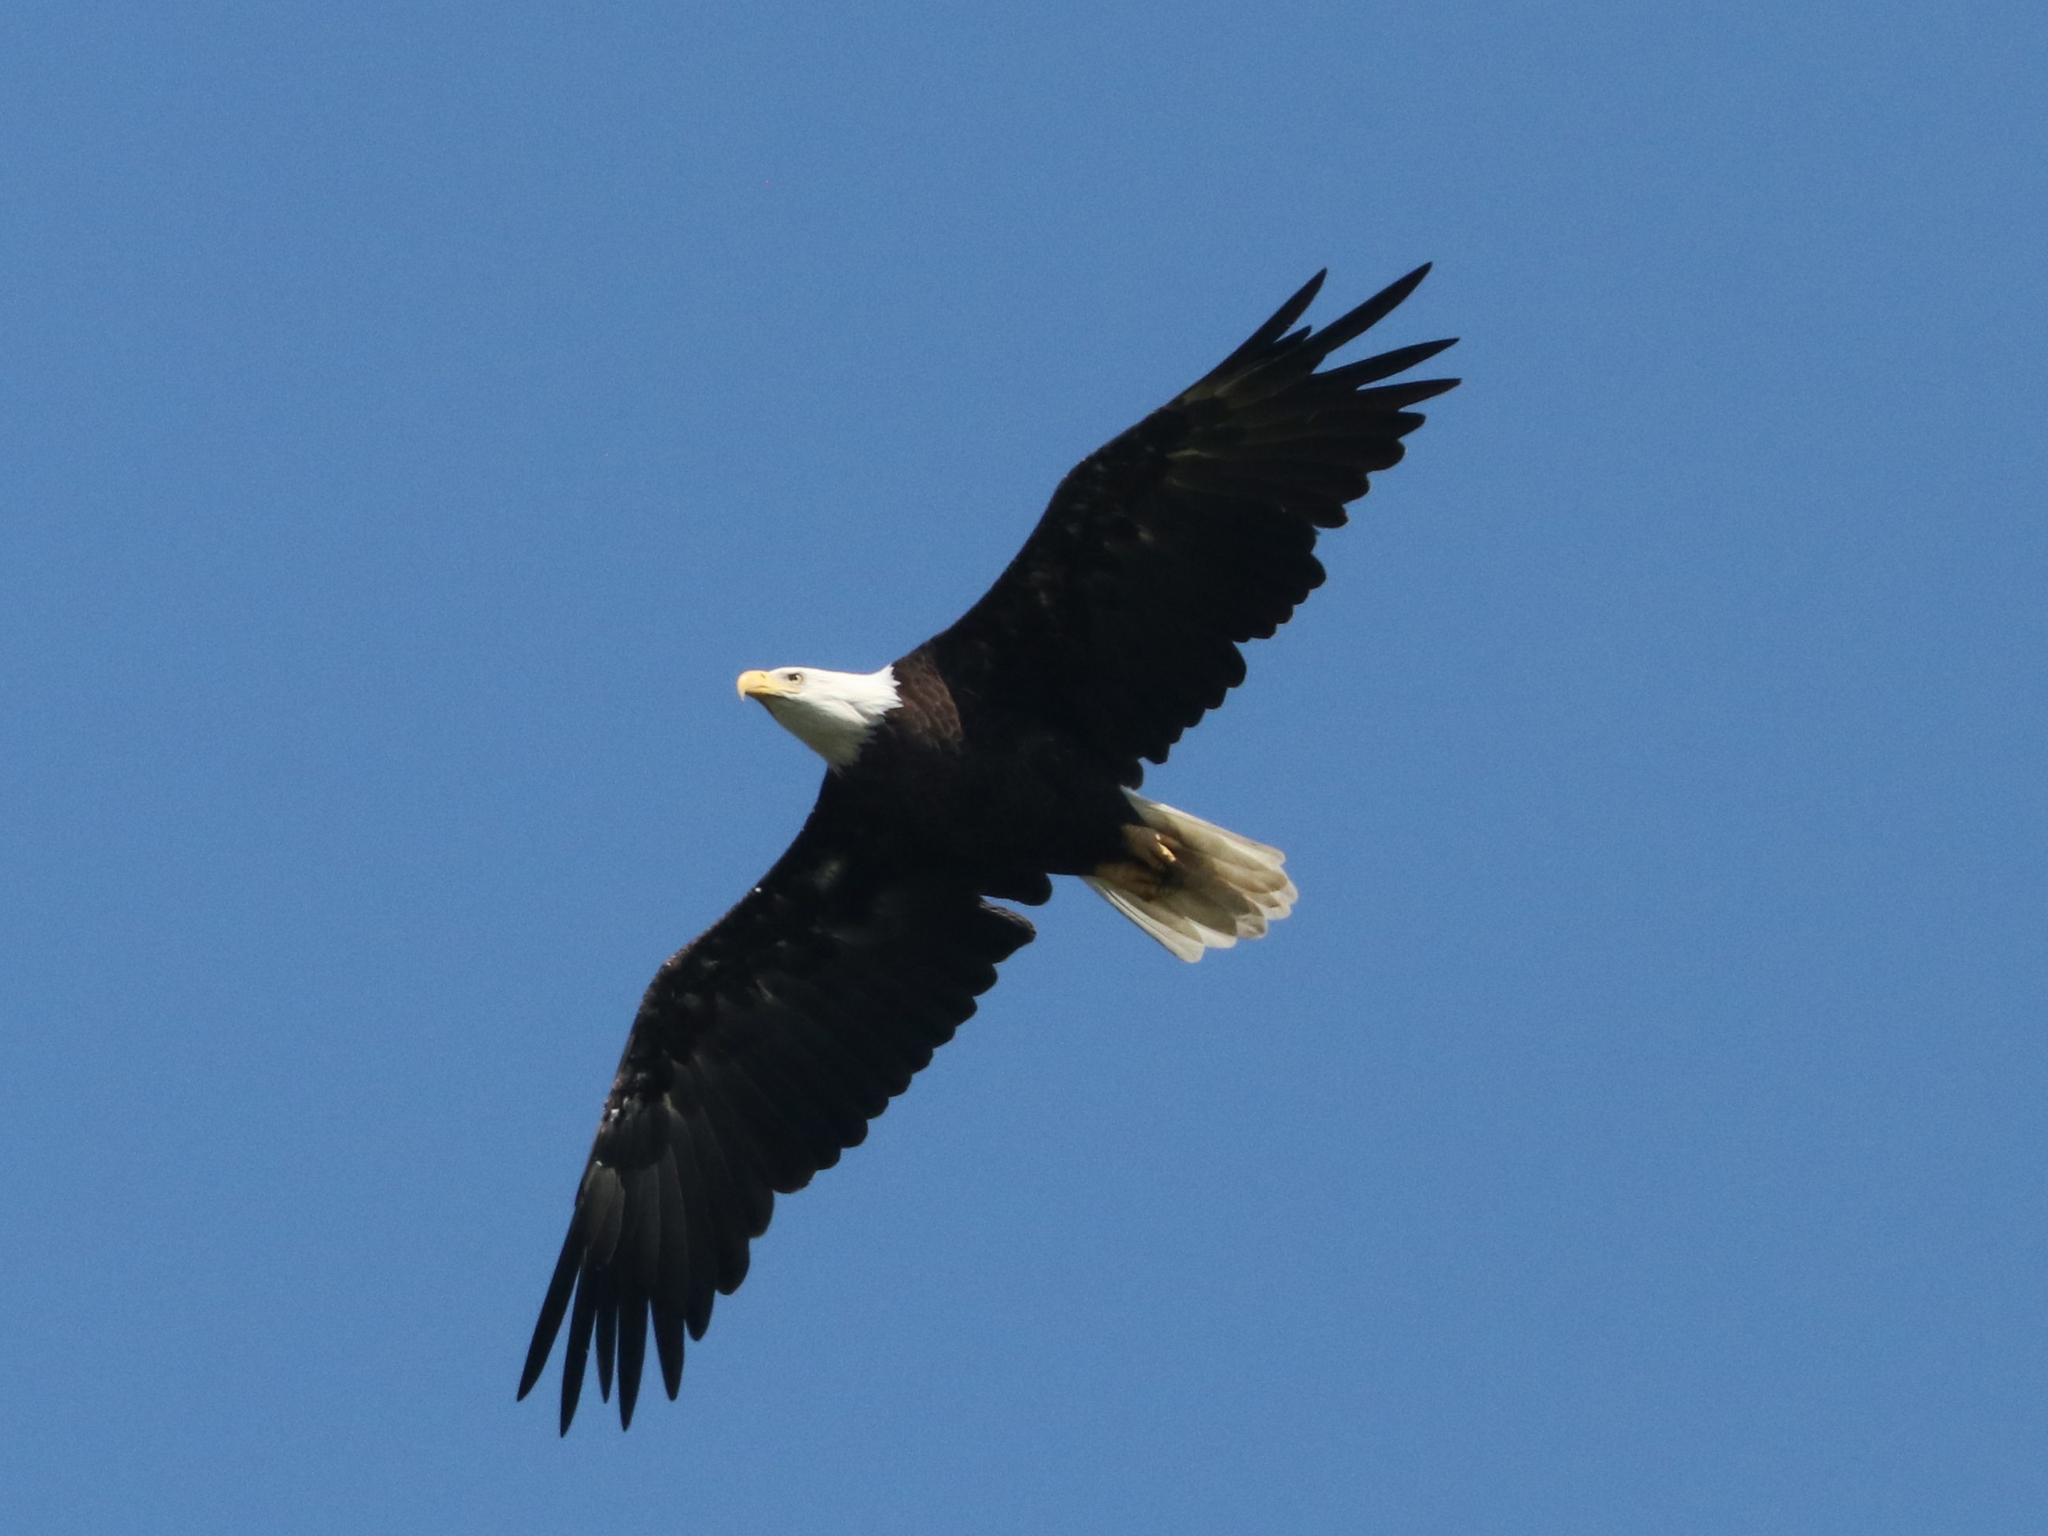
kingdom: Animalia
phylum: Chordata
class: Aves
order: Accipitriformes
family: Accipitridae
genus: Haliaeetus
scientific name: Haliaeetus leucocephalus
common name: Bald eagle
